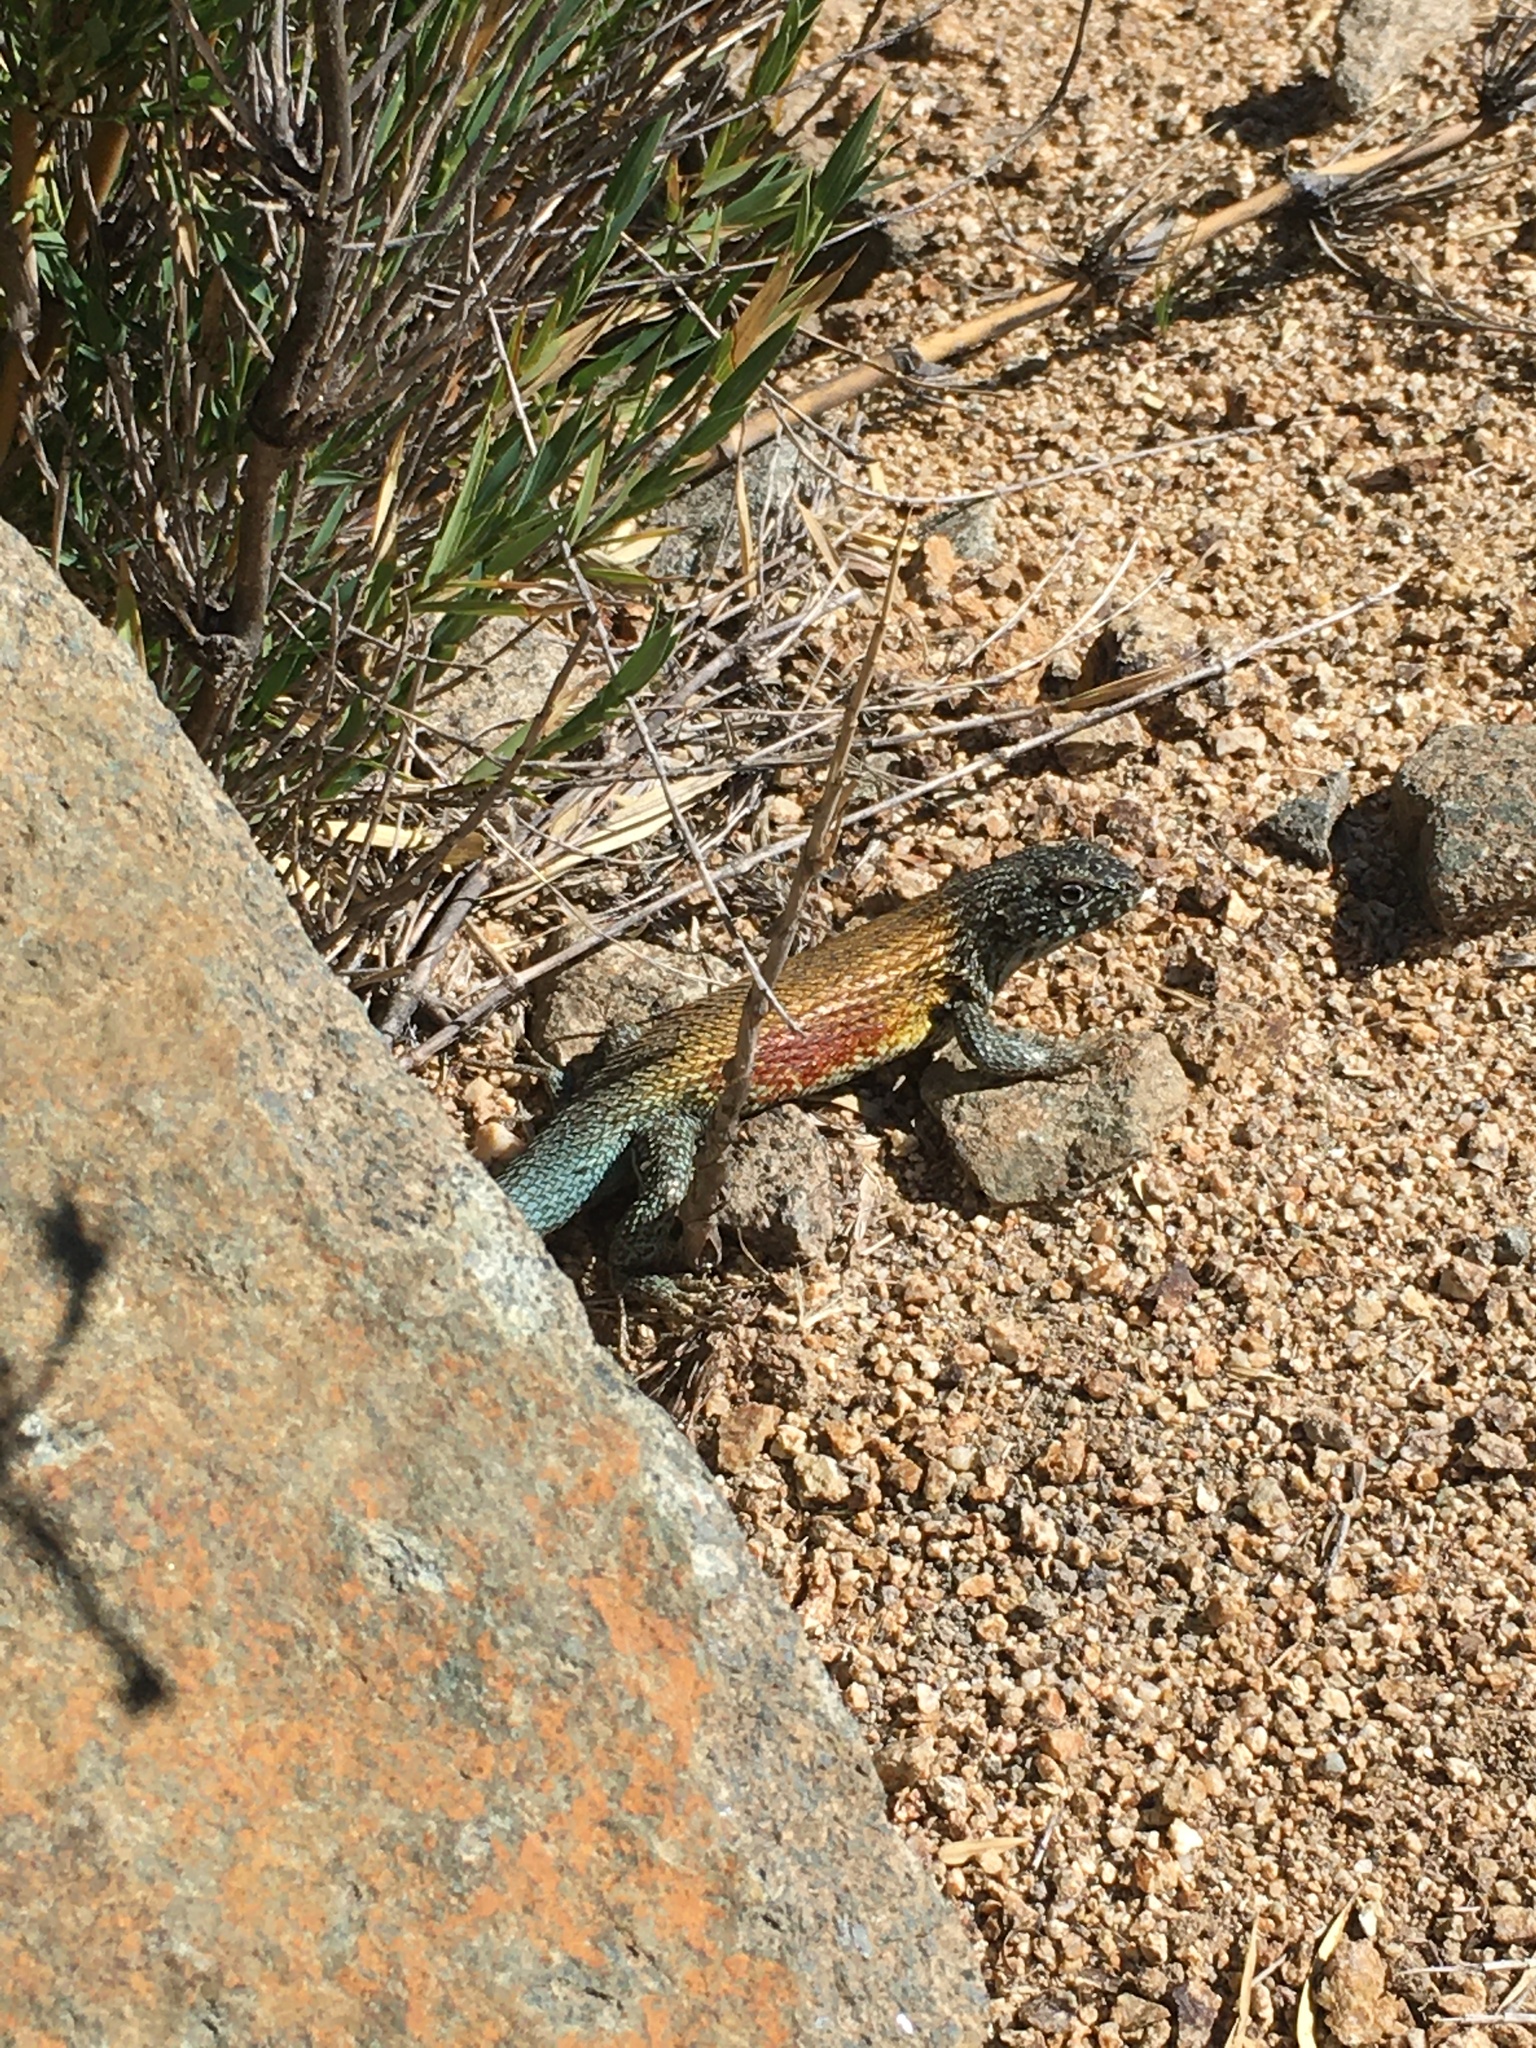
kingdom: Animalia
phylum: Chordata
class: Squamata
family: Liolaemidae
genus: Liolaemus
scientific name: Liolaemus nitidus
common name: Shining tree iguana
